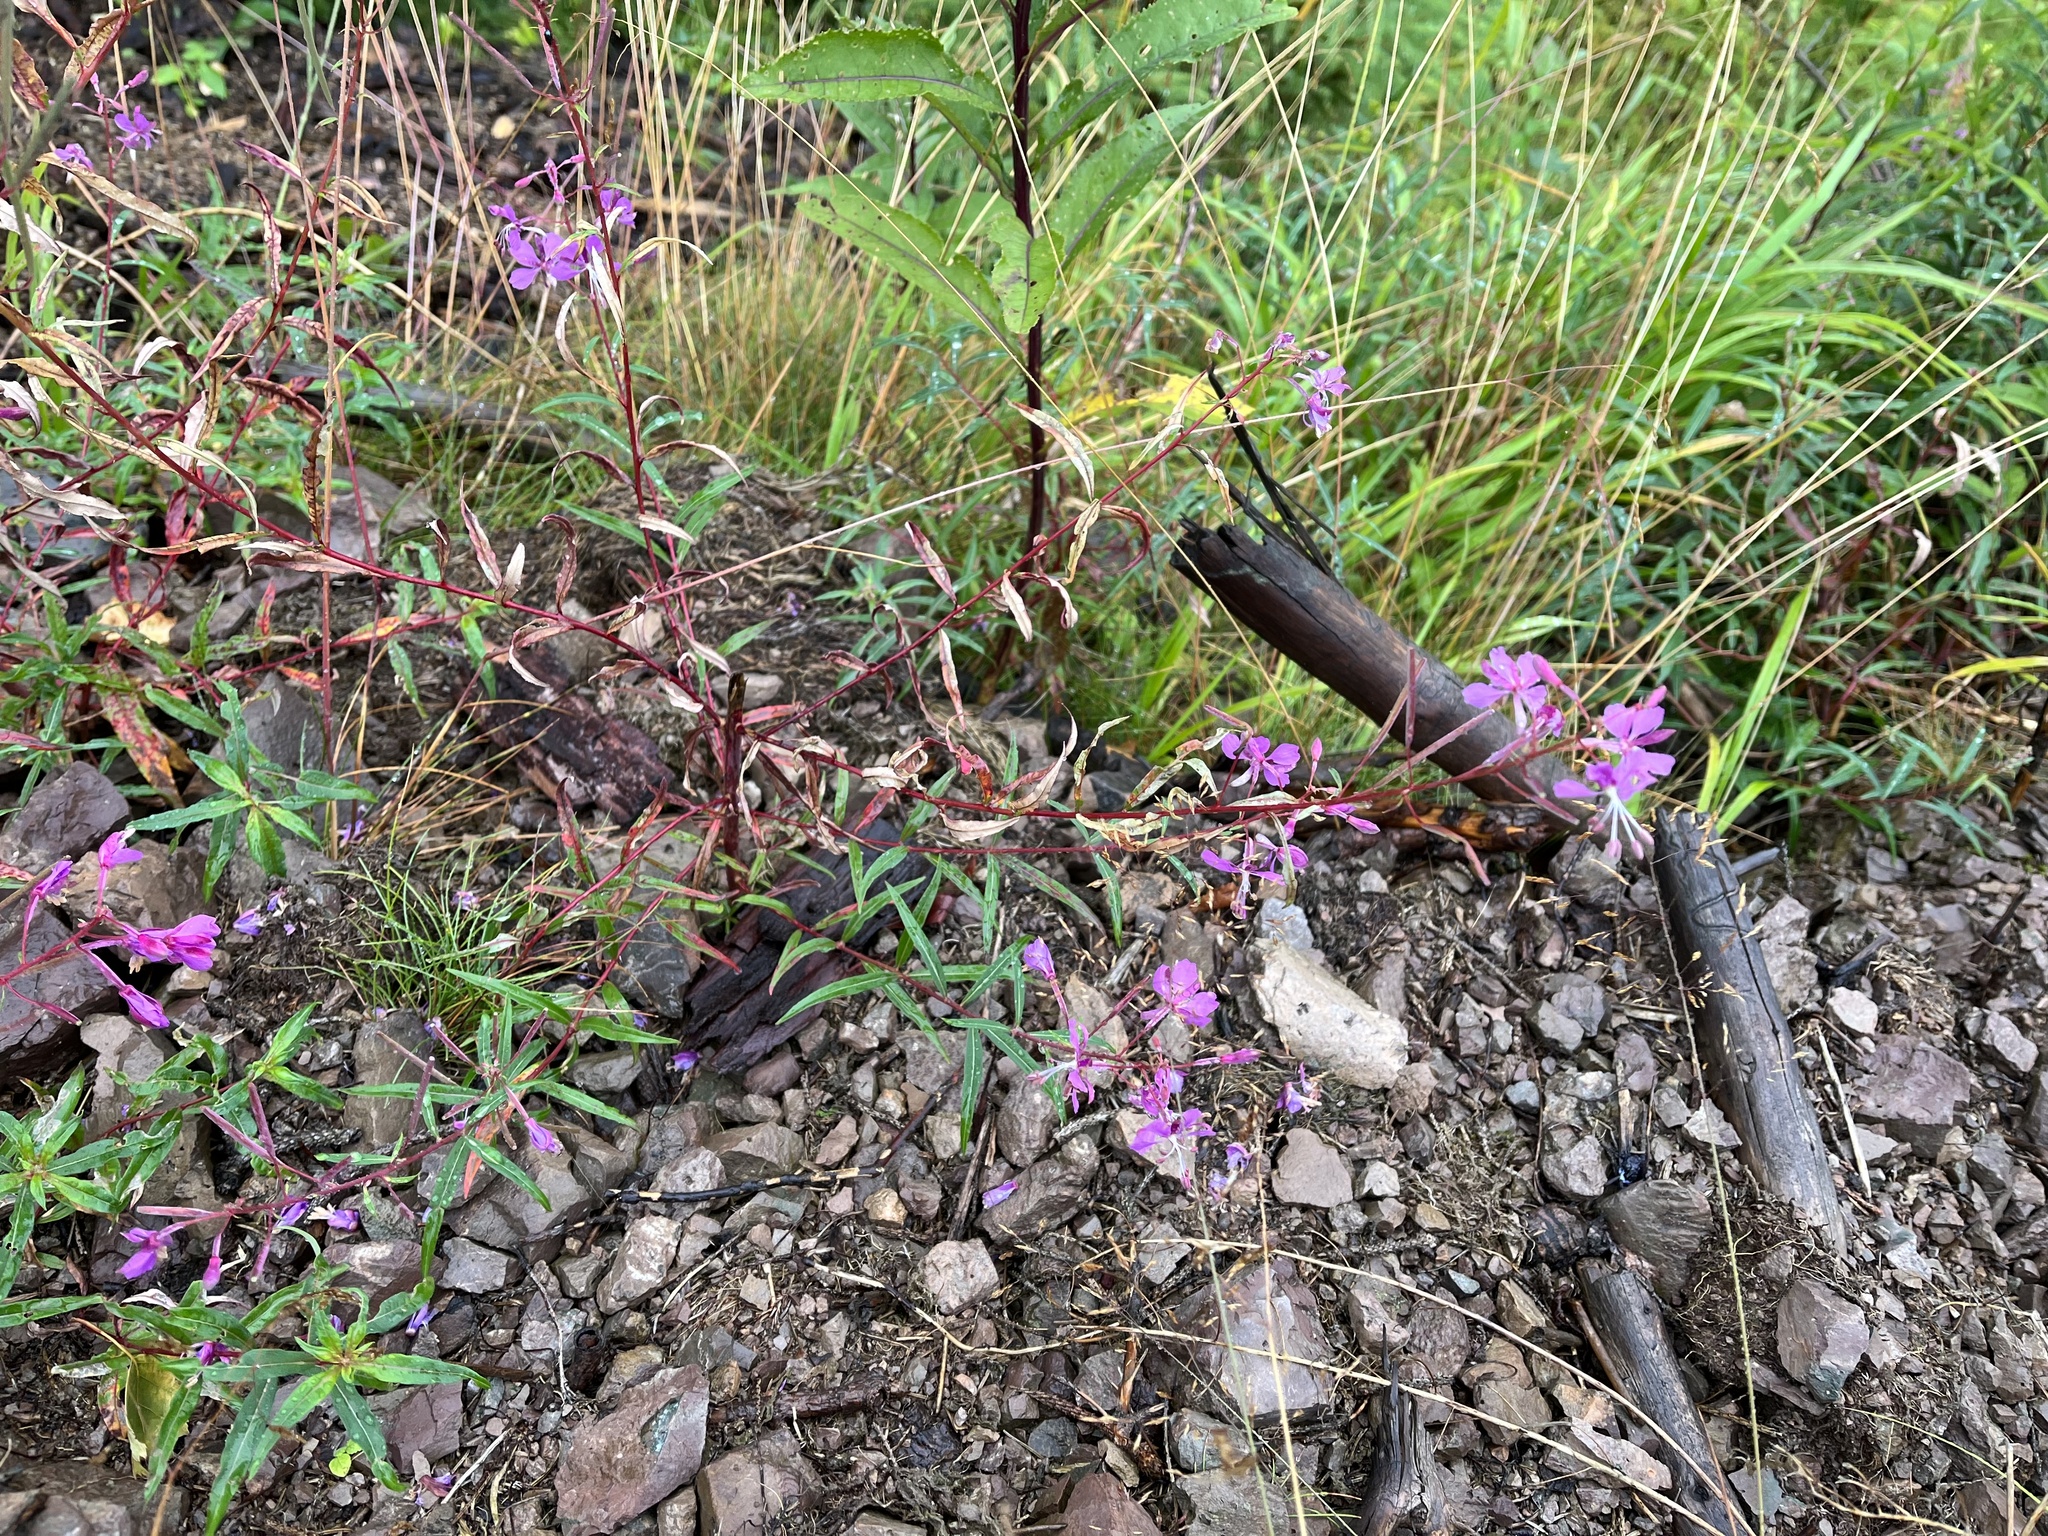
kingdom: Plantae
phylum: Tracheophyta
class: Magnoliopsida
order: Myrtales
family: Onagraceae
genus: Chamaenerion
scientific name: Chamaenerion angustifolium
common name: Fireweed
